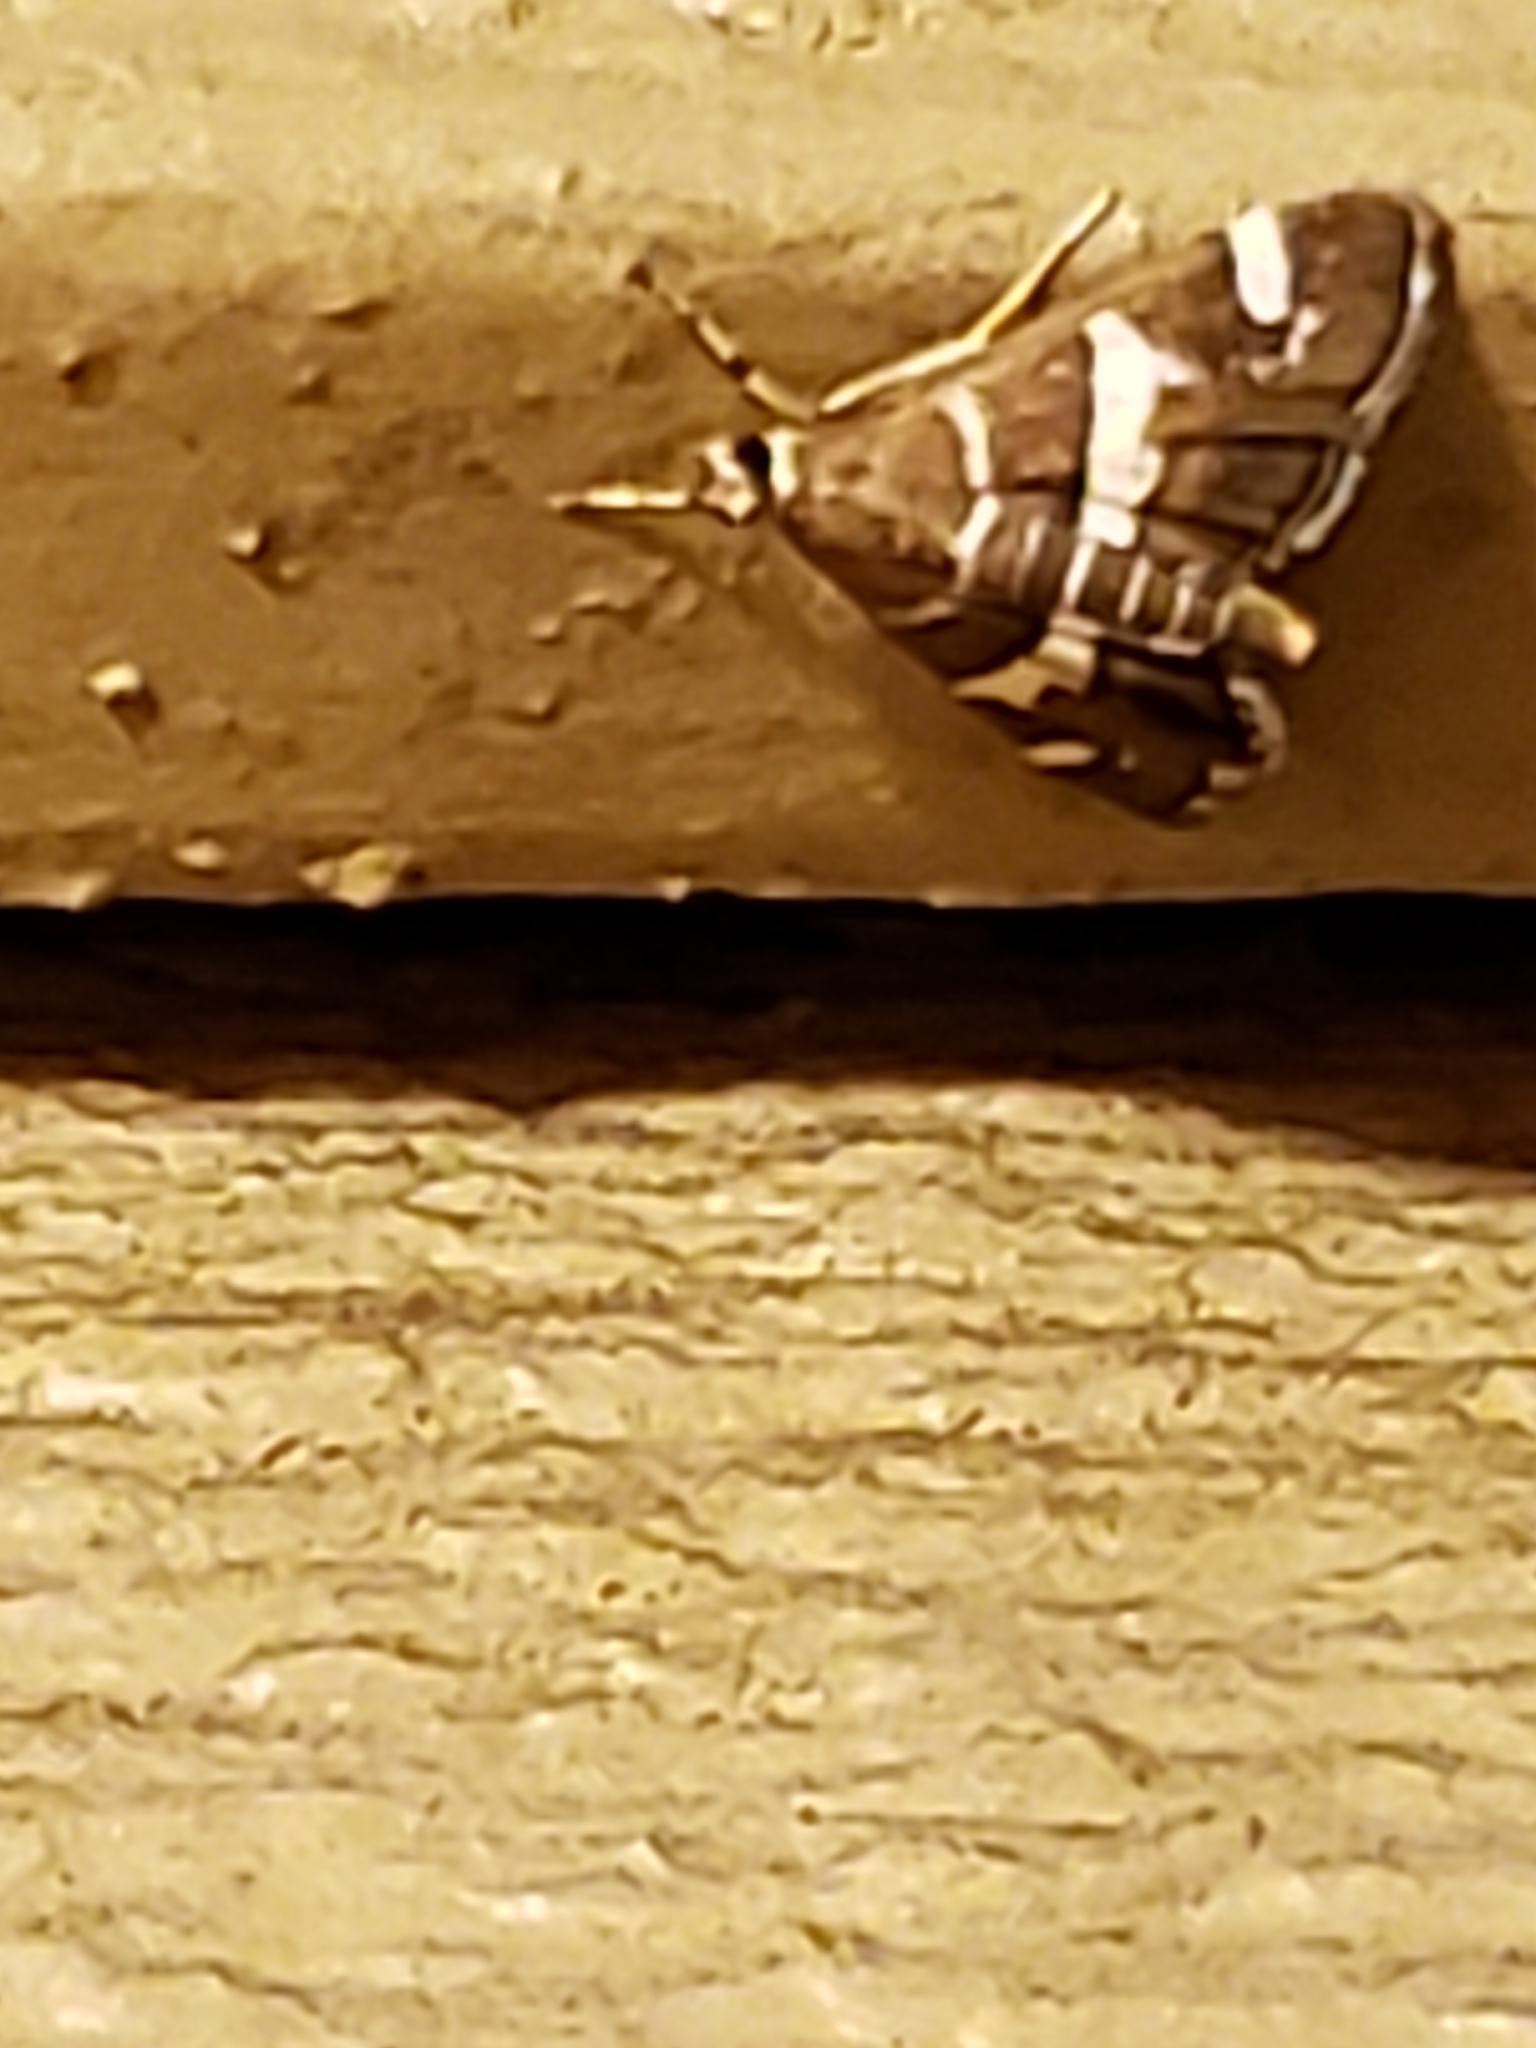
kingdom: Animalia
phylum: Arthropoda
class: Insecta
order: Lepidoptera
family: Crambidae
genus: Spoladea
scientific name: Spoladea recurvalis
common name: Beet webworm moth
